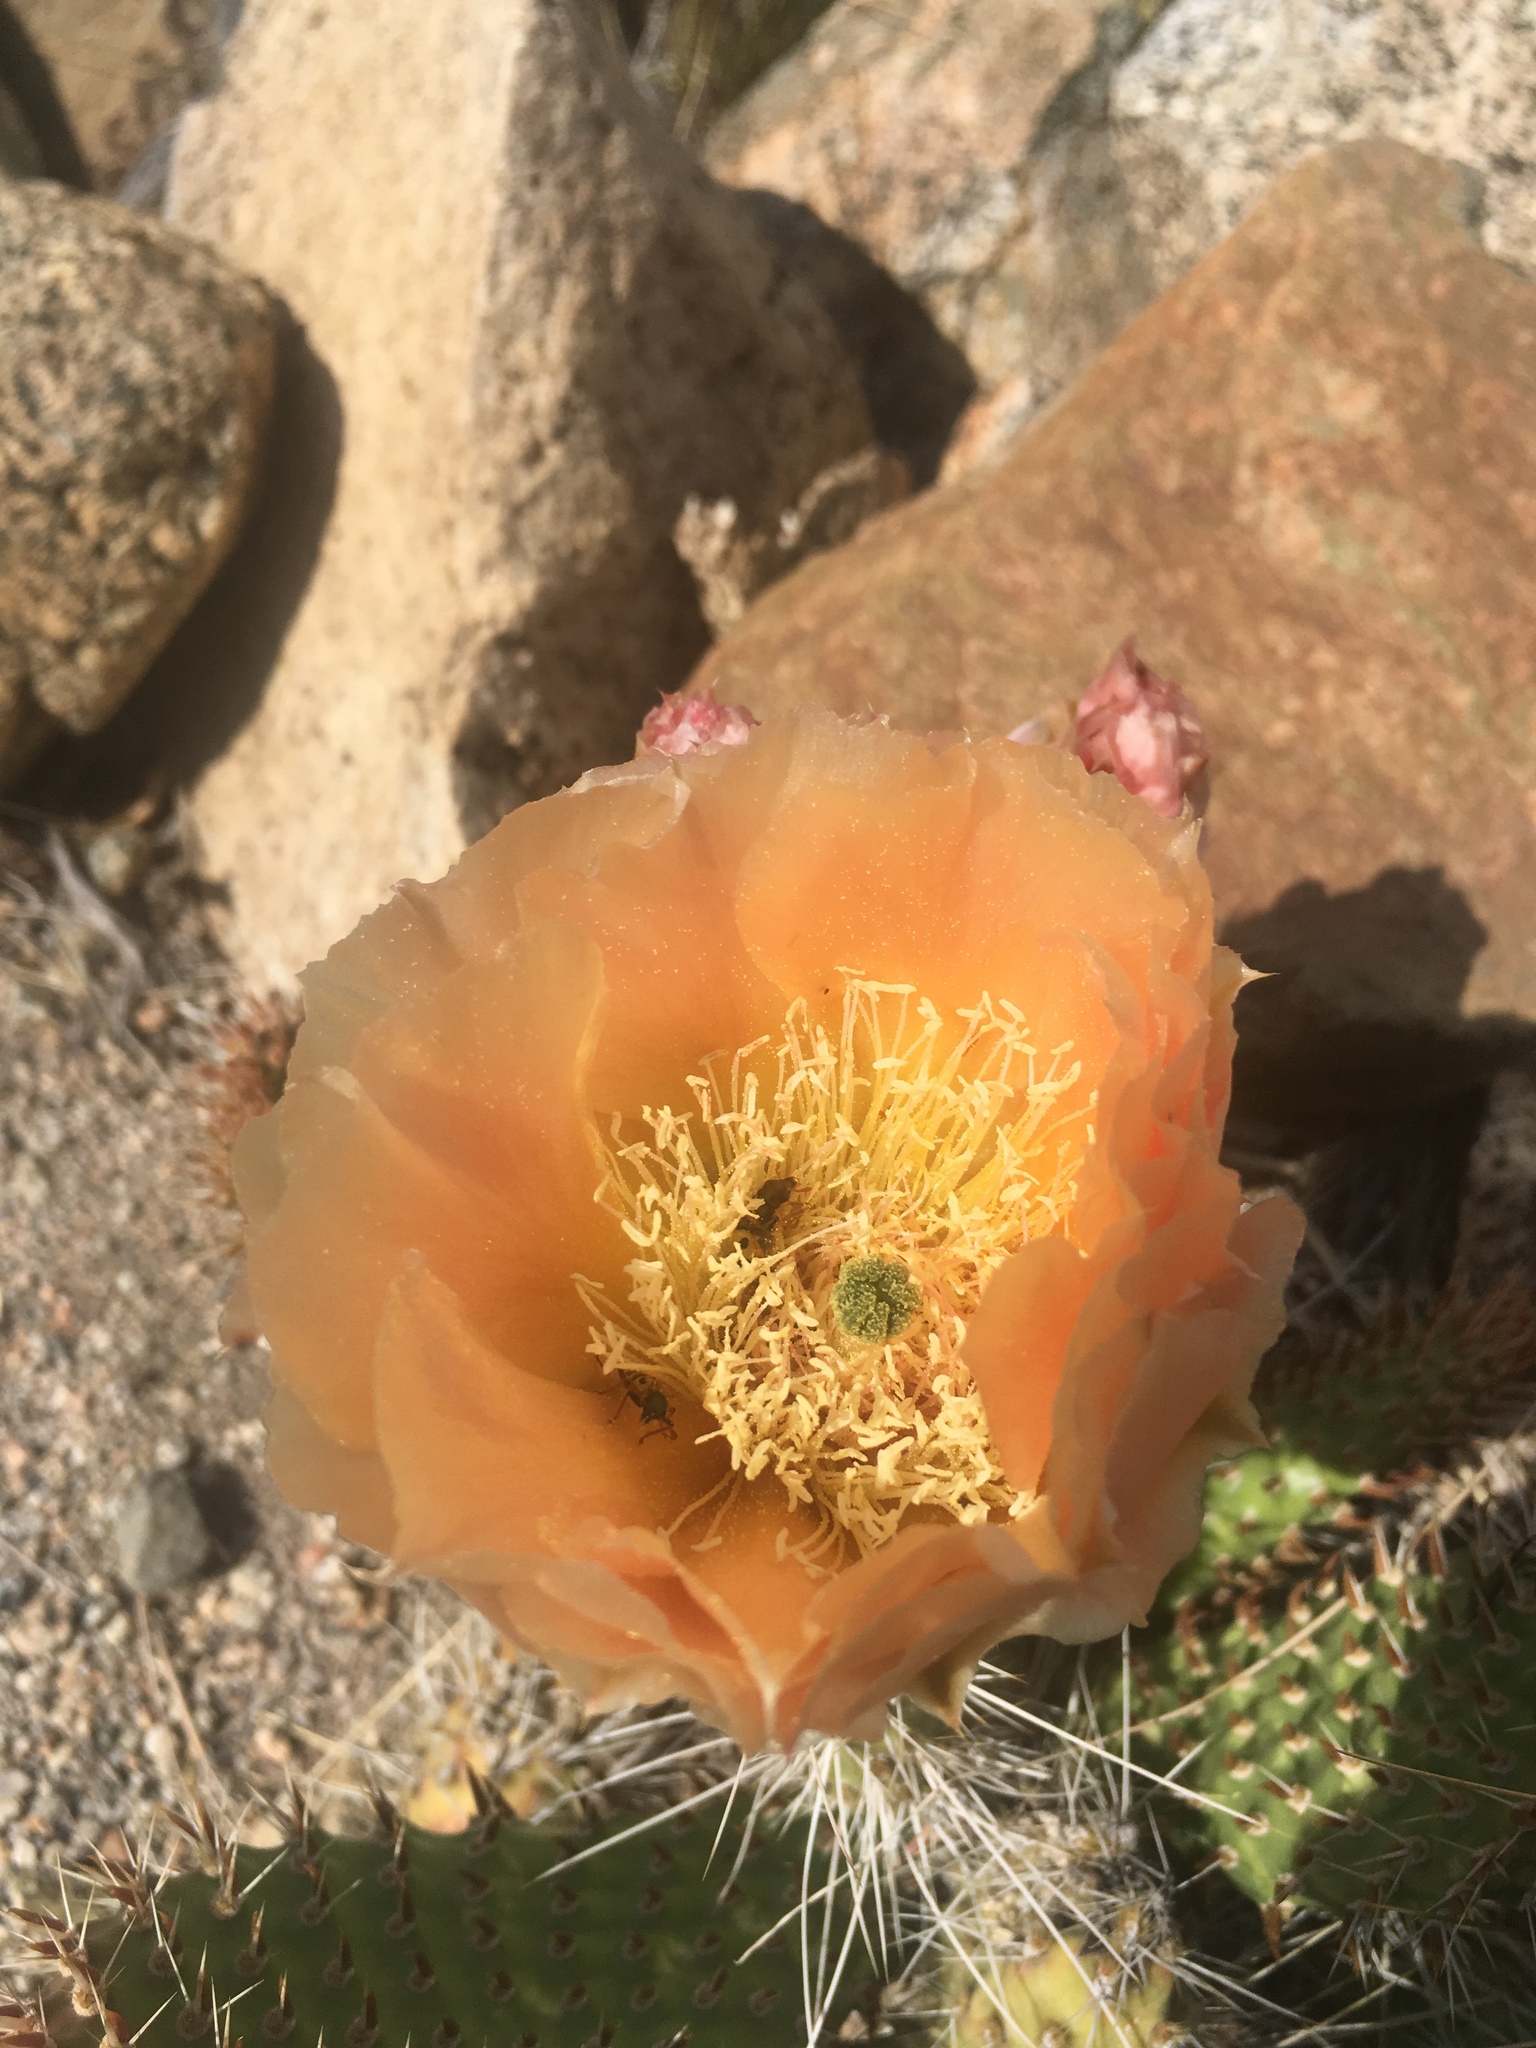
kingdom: Plantae
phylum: Tracheophyta
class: Magnoliopsida
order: Caryophyllales
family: Cactaceae
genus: Opuntia
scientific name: Opuntia polyacantha
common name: Plains prickly-pear
